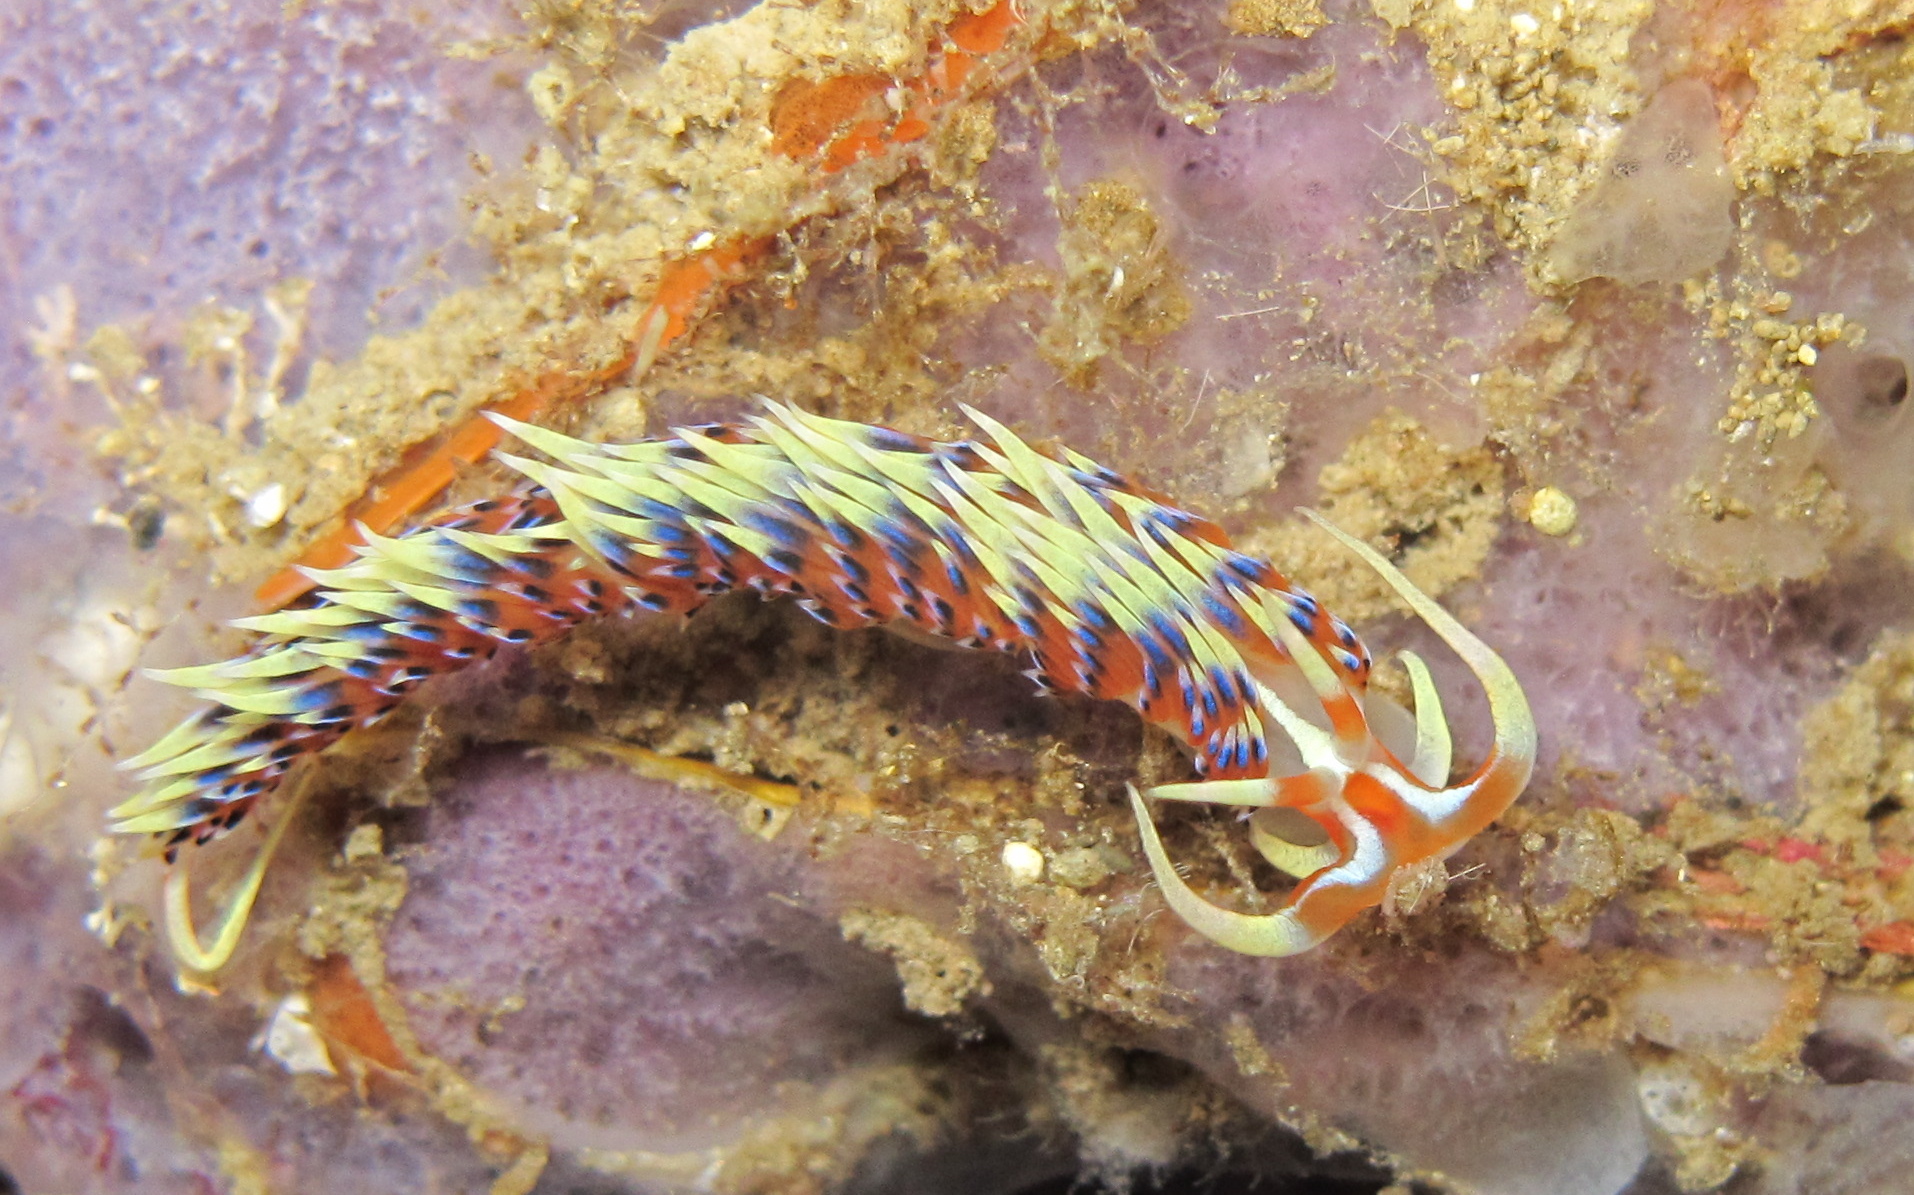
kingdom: Animalia
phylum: Mollusca
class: Gastropoda
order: Nudibranchia
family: Facelinidae
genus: Caloria
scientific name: Caloria indica
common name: Sea slug
